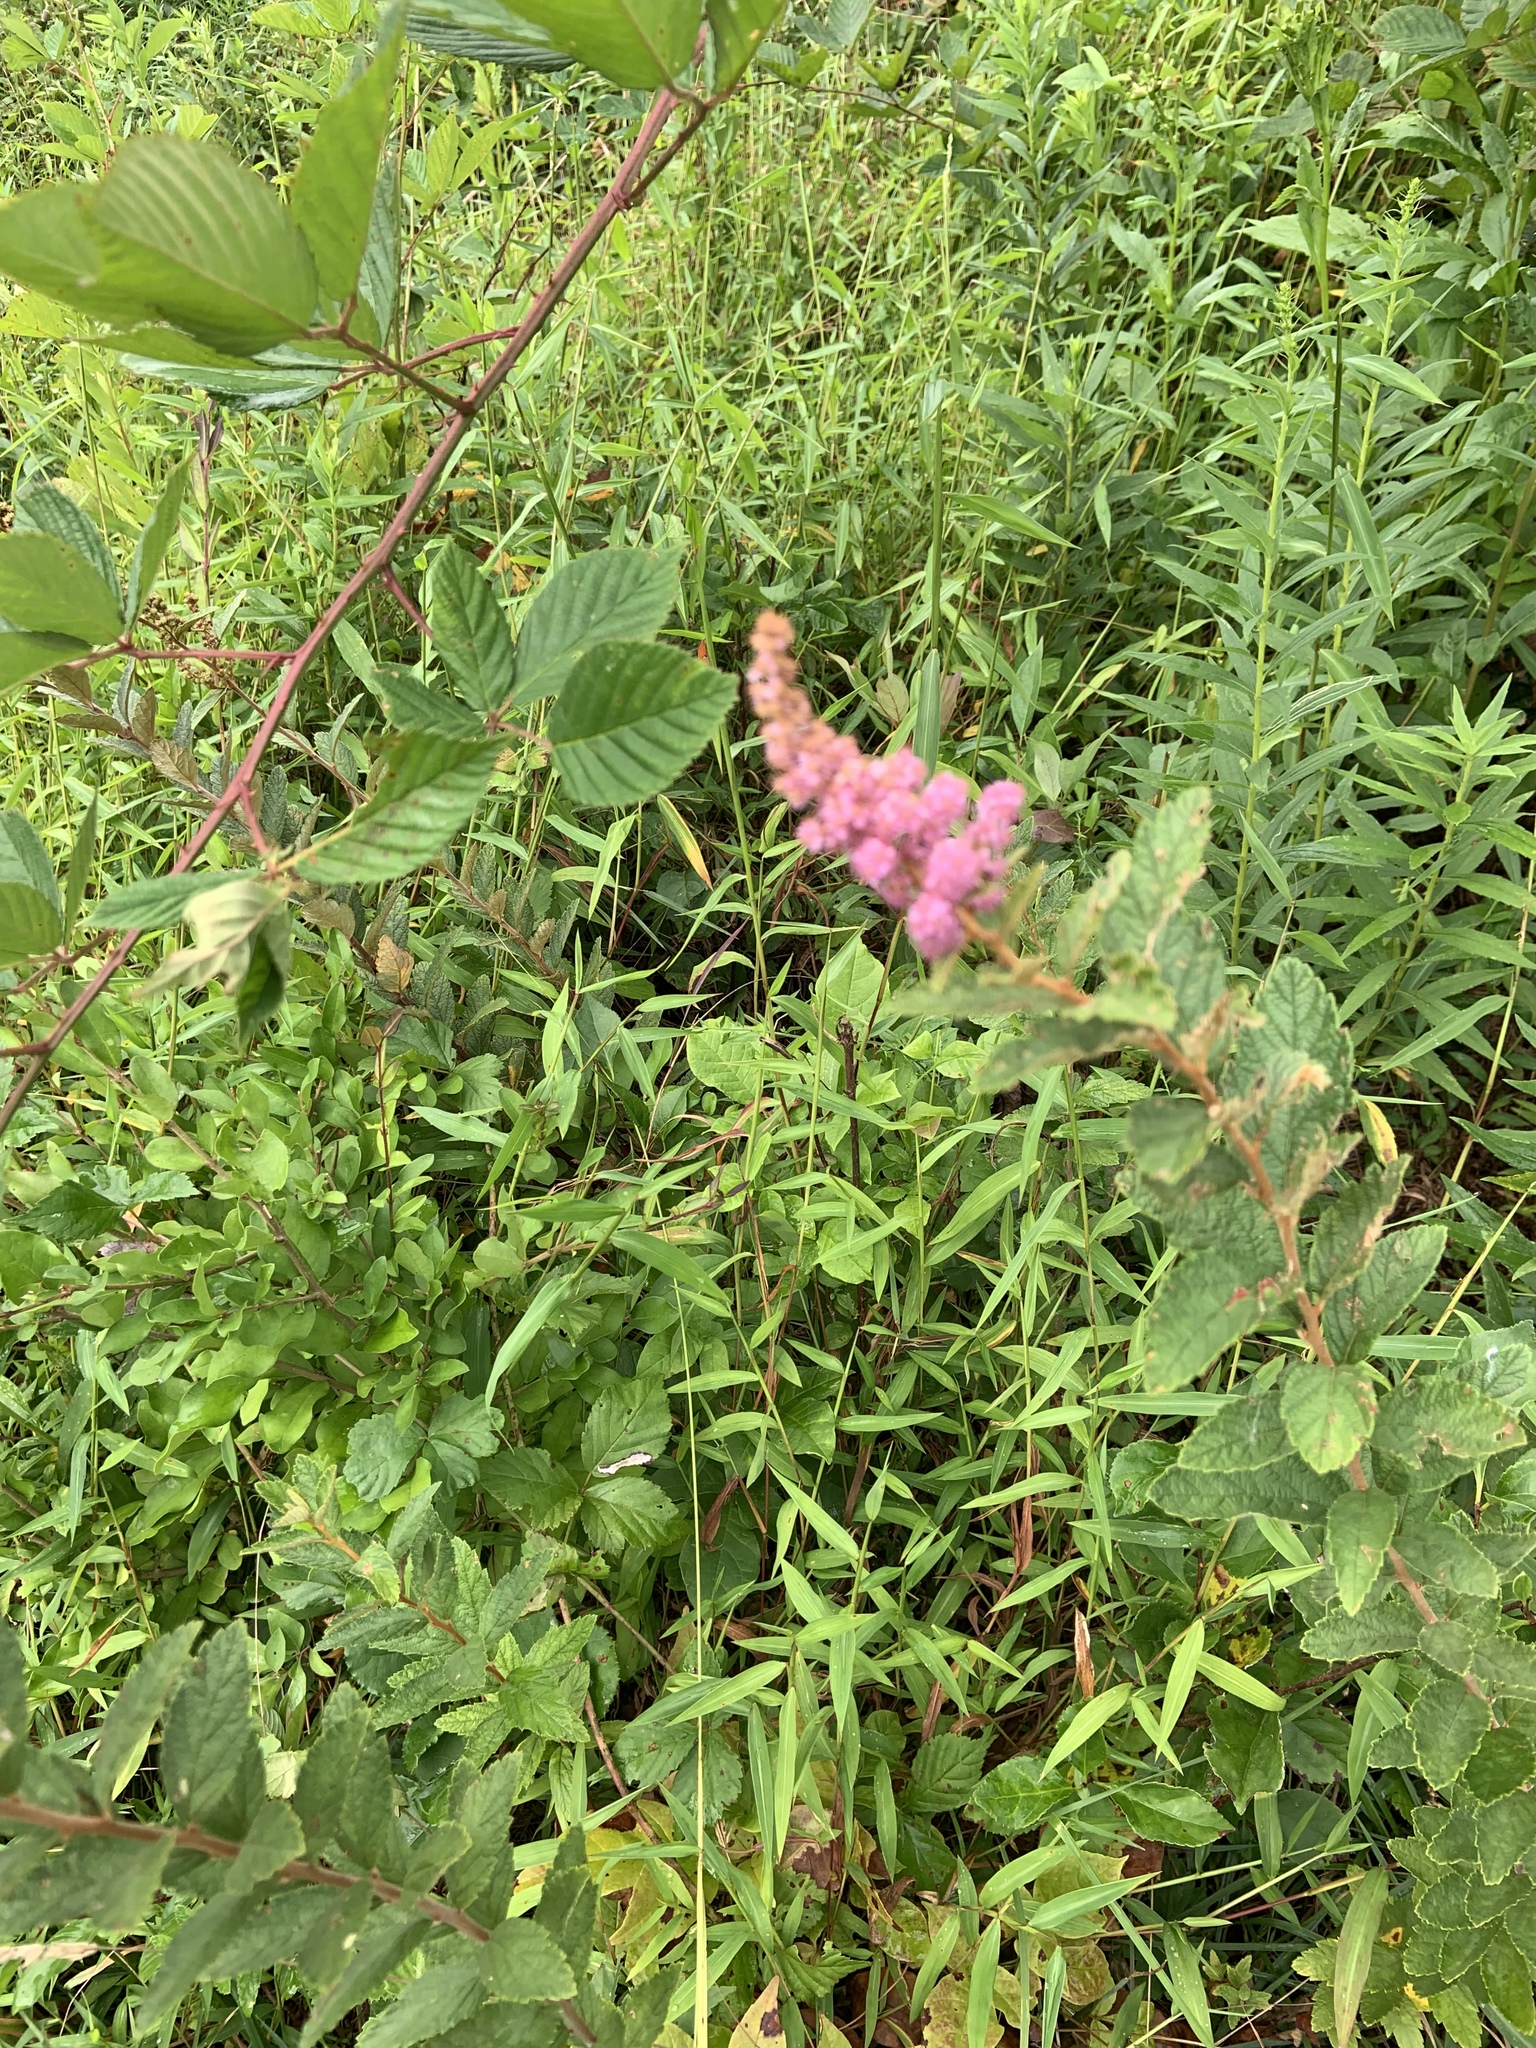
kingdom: Plantae
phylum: Tracheophyta
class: Magnoliopsida
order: Rosales
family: Rosaceae
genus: Spiraea
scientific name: Spiraea tomentosa
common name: Hardhack
